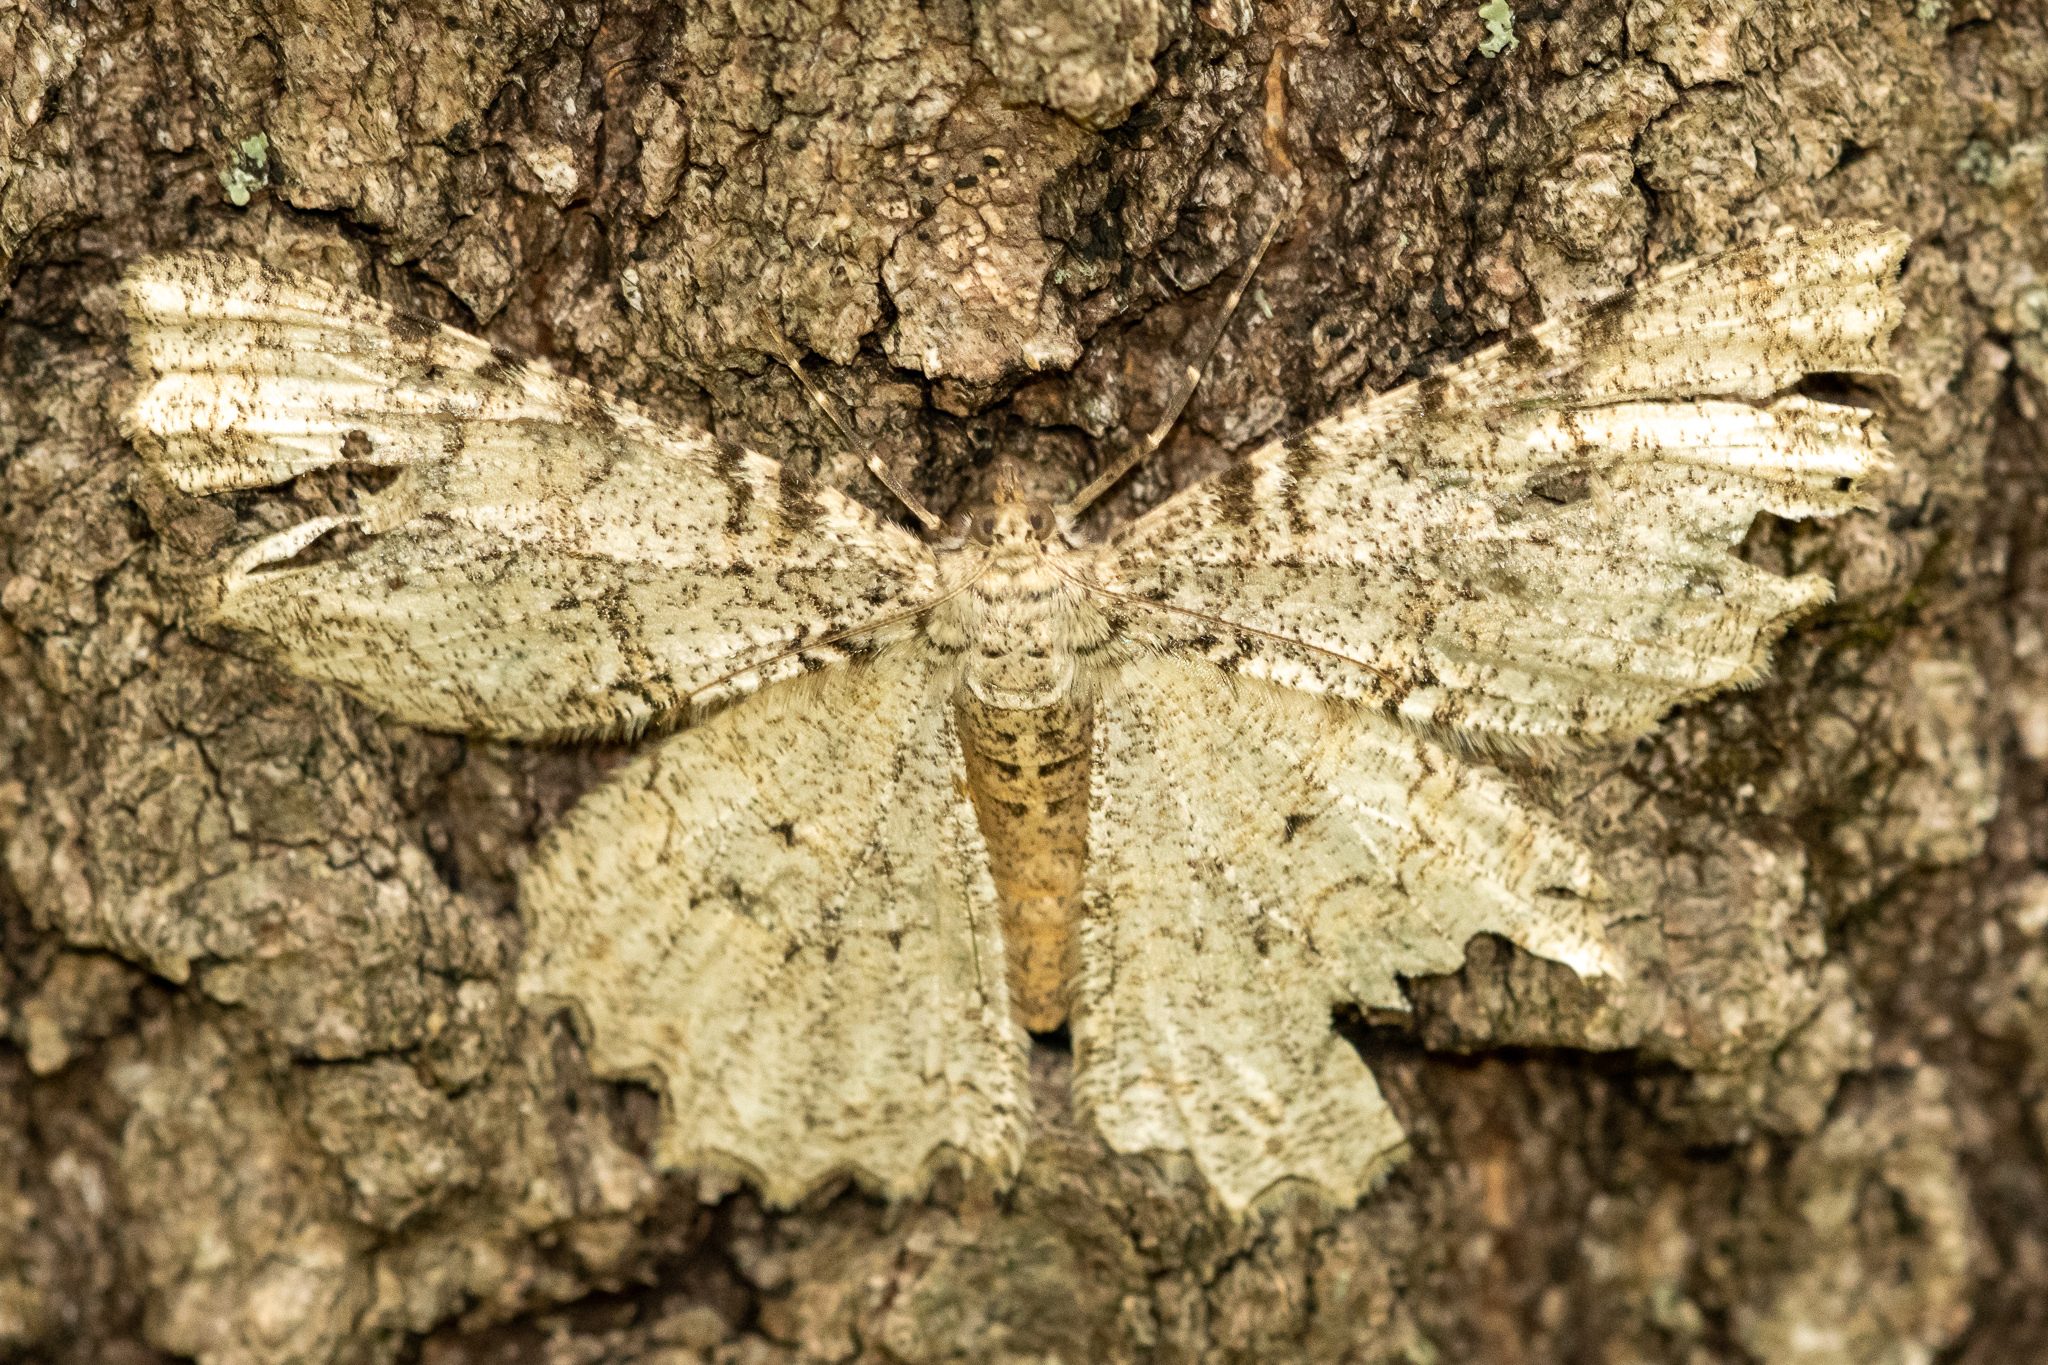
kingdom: Animalia
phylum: Arthropoda
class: Insecta
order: Lepidoptera
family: Geometridae
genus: Epimecis
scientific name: Epimecis hortaria
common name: Tulip-tree beauty
